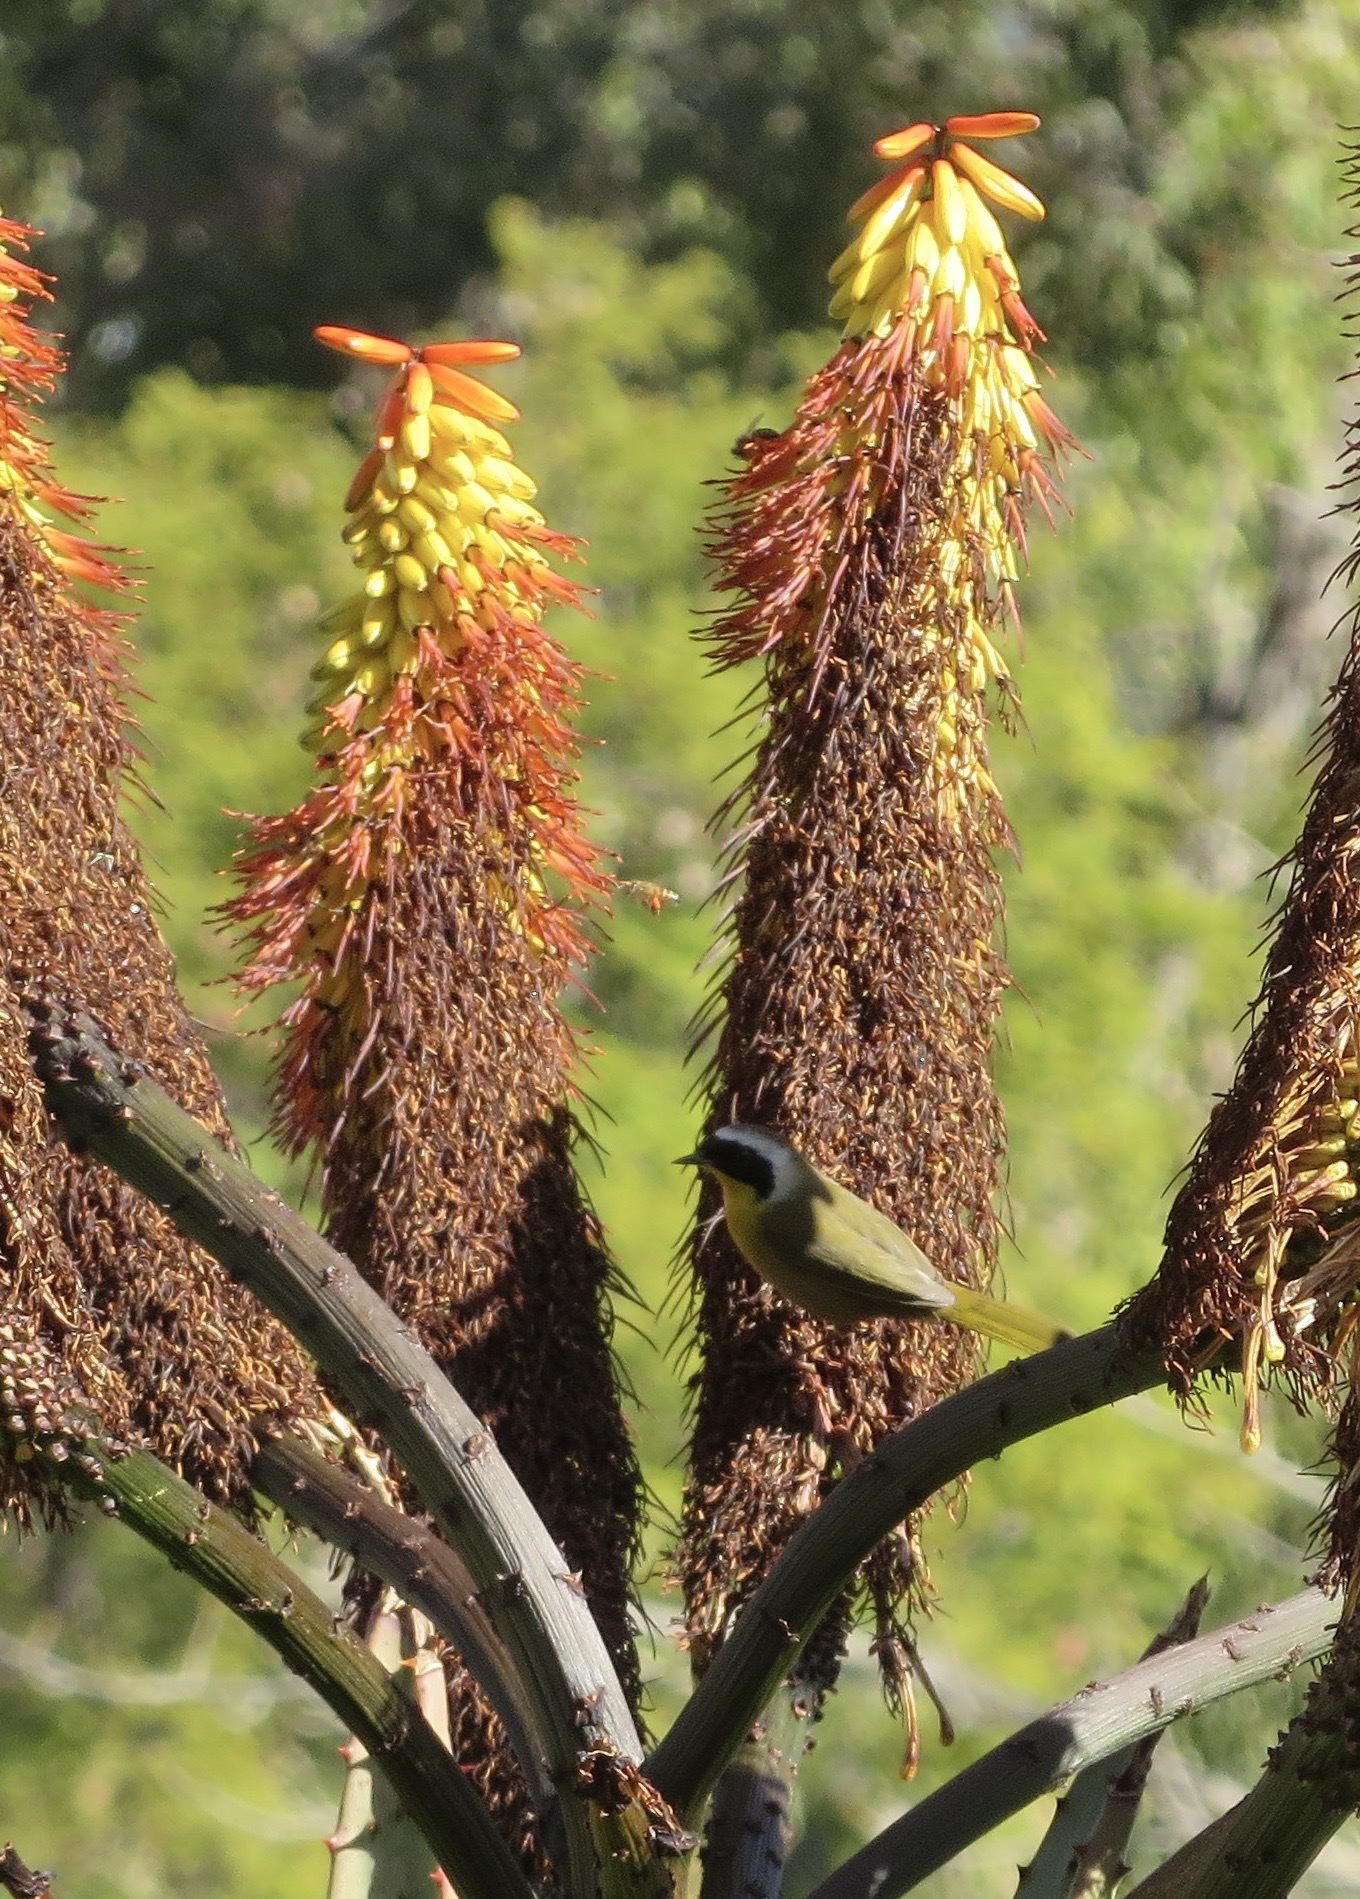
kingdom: Animalia
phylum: Chordata
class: Aves
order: Passeriformes
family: Parulidae
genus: Geothlypis
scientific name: Geothlypis trichas
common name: Common yellowthroat
